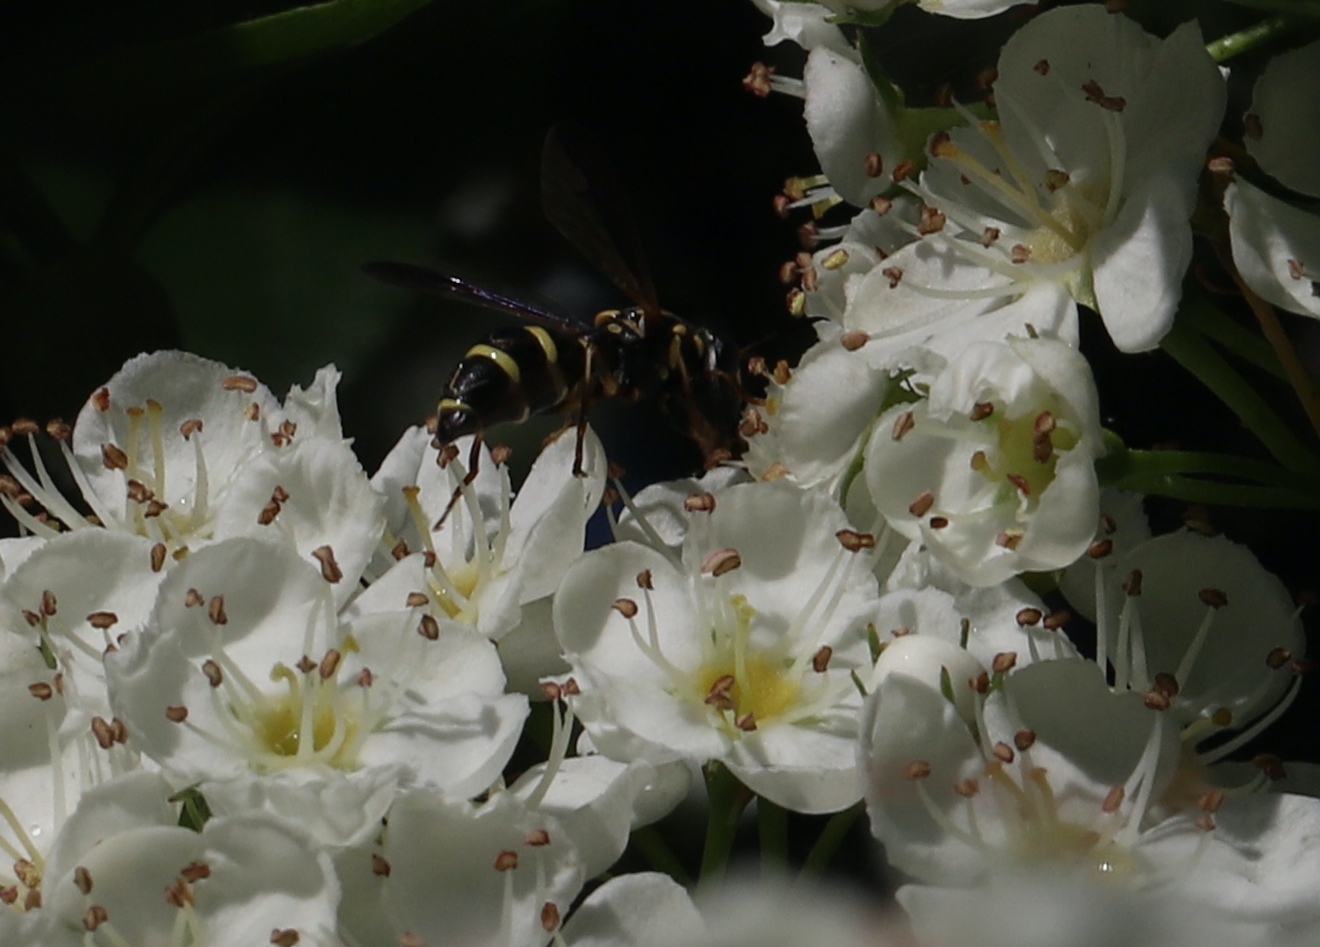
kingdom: Animalia
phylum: Arthropoda
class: Insecta
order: Diptera
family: Syrphidae
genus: Sphiximorpha
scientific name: Sphiximorpha willistoni
